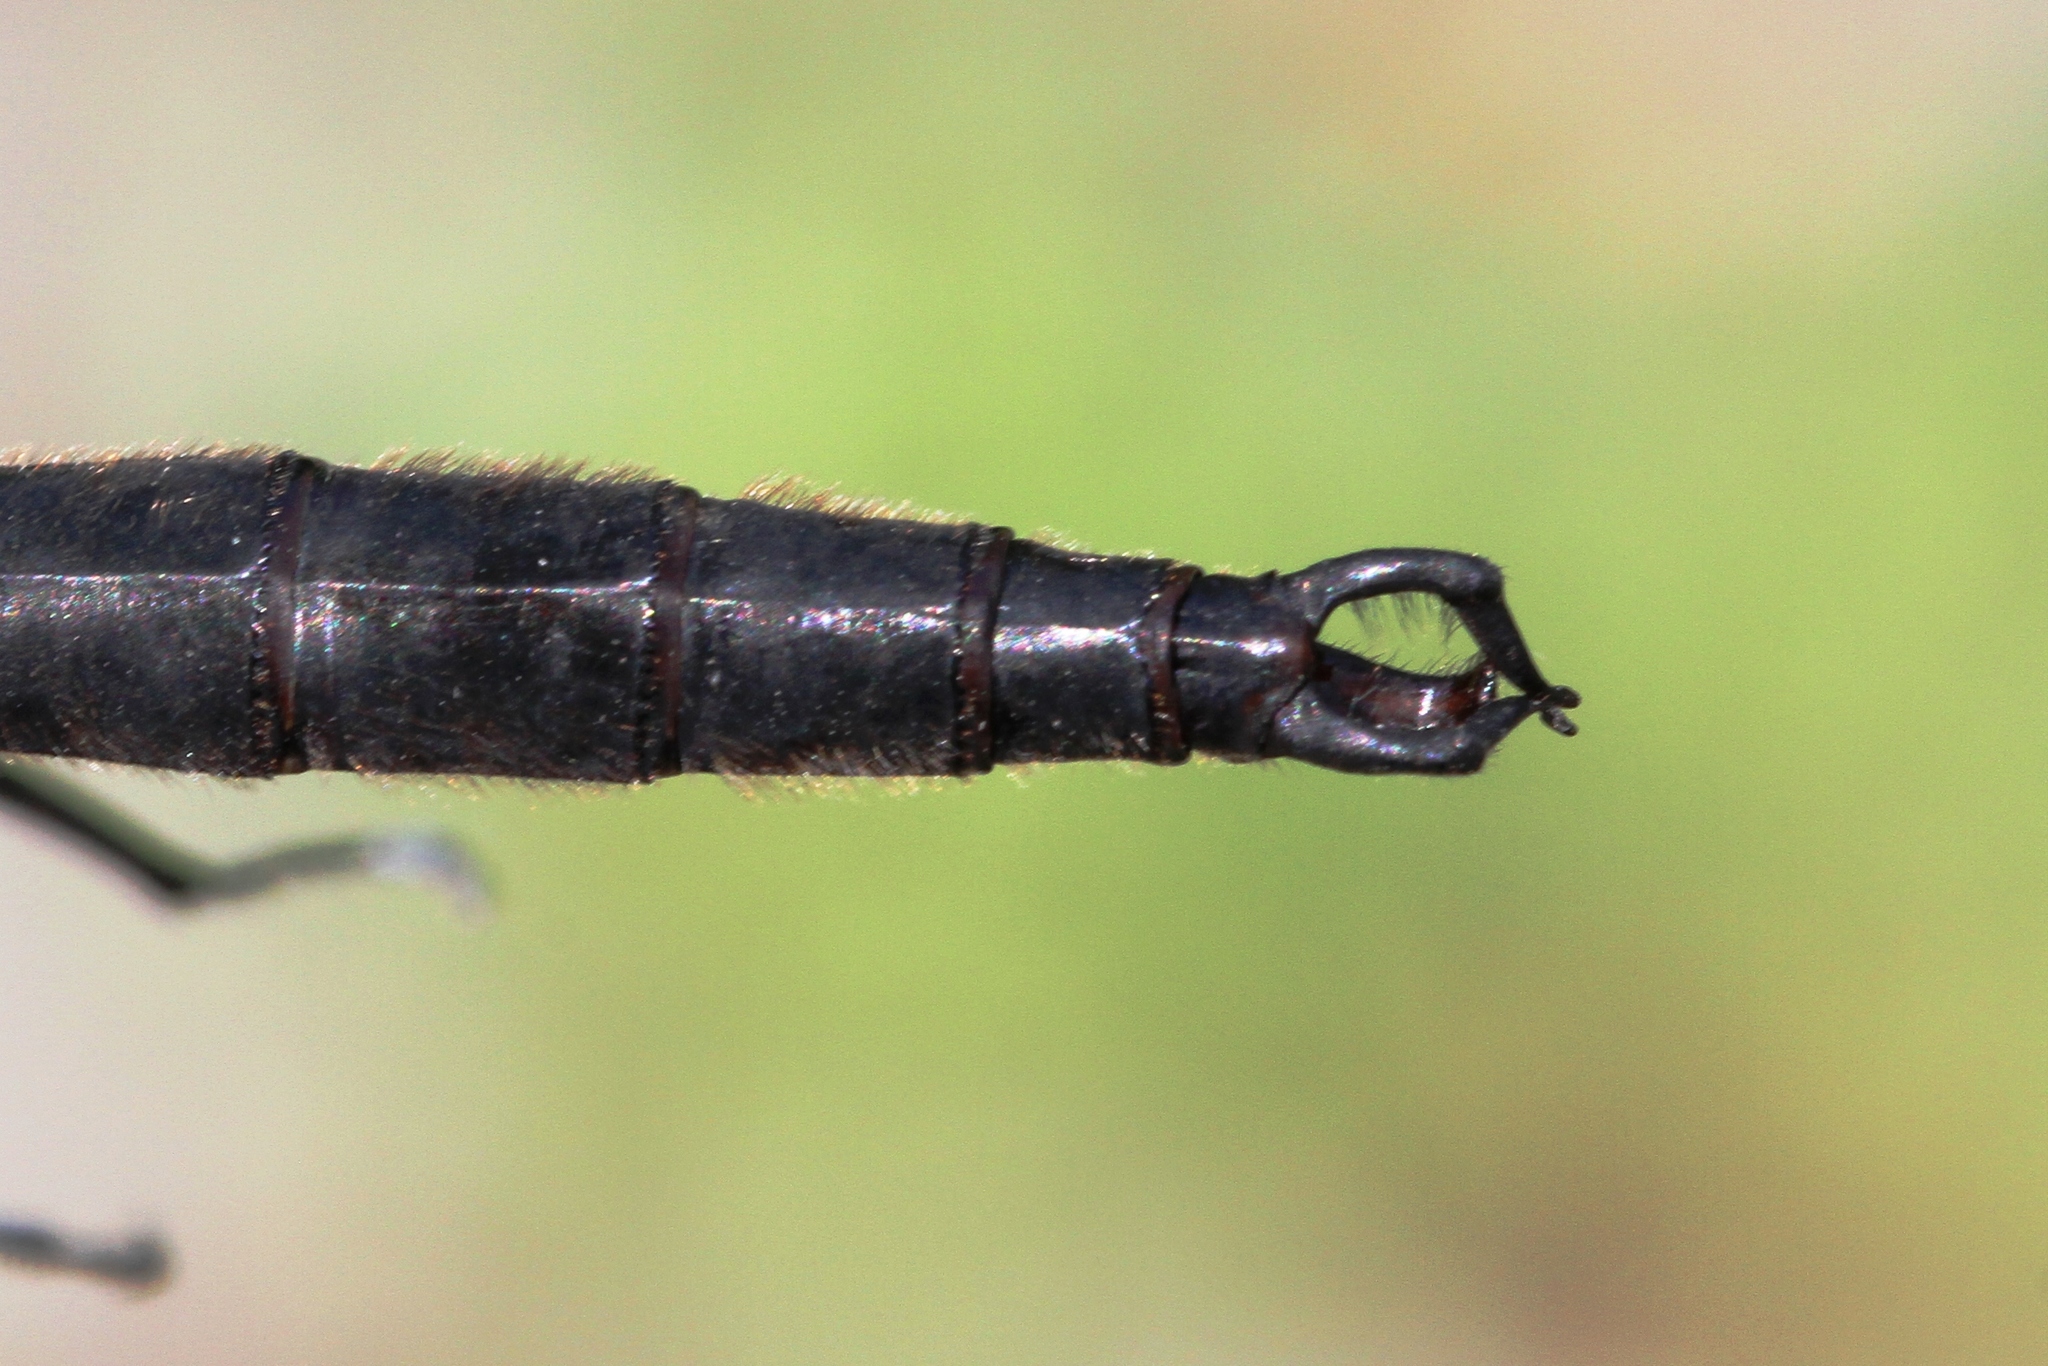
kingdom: Animalia
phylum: Arthropoda
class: Insecta
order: Odonata
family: Corduliidae
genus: Somatochlora
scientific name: Somatochlora tenebrosa
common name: Clamp-tipped emerald
